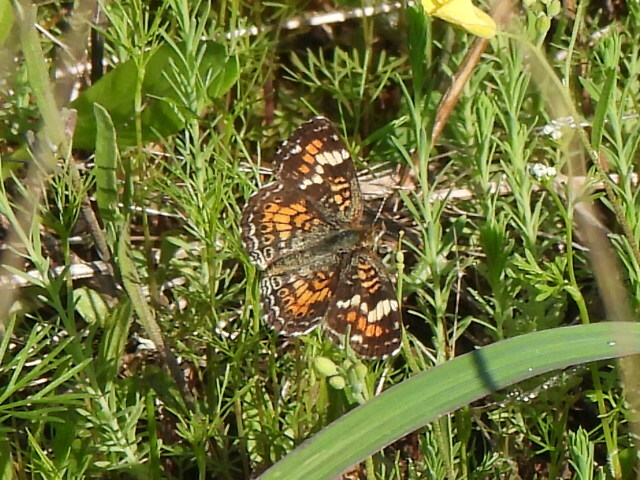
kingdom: Animalia
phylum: Arthropoda
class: Insecta
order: Lepidoptera
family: Nymphalidae
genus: Phyciodes
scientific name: Phyciodes phaon
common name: Phaon crescent
